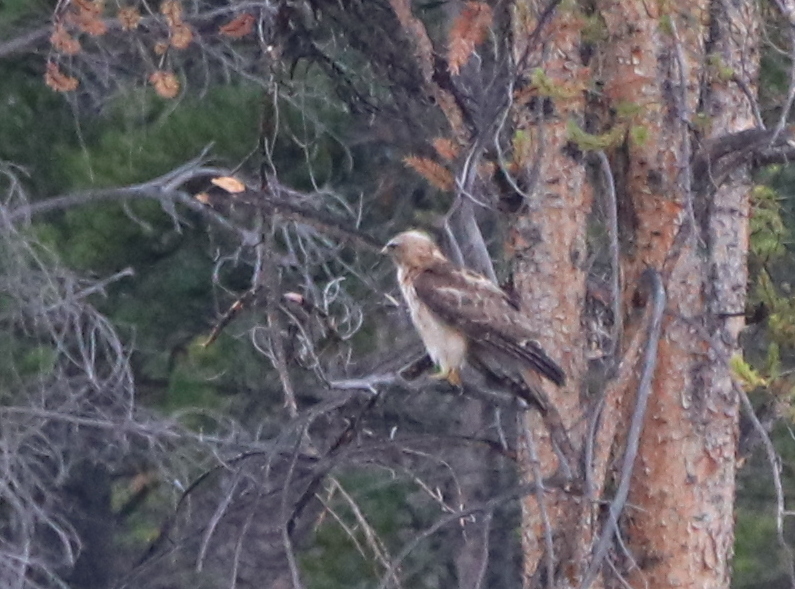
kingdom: Animalia
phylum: Chordata
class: Aves
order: Accipitriformes
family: Accipitridae
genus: Buteo
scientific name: Buteo jamaicensis
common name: Red-tailed hawk
